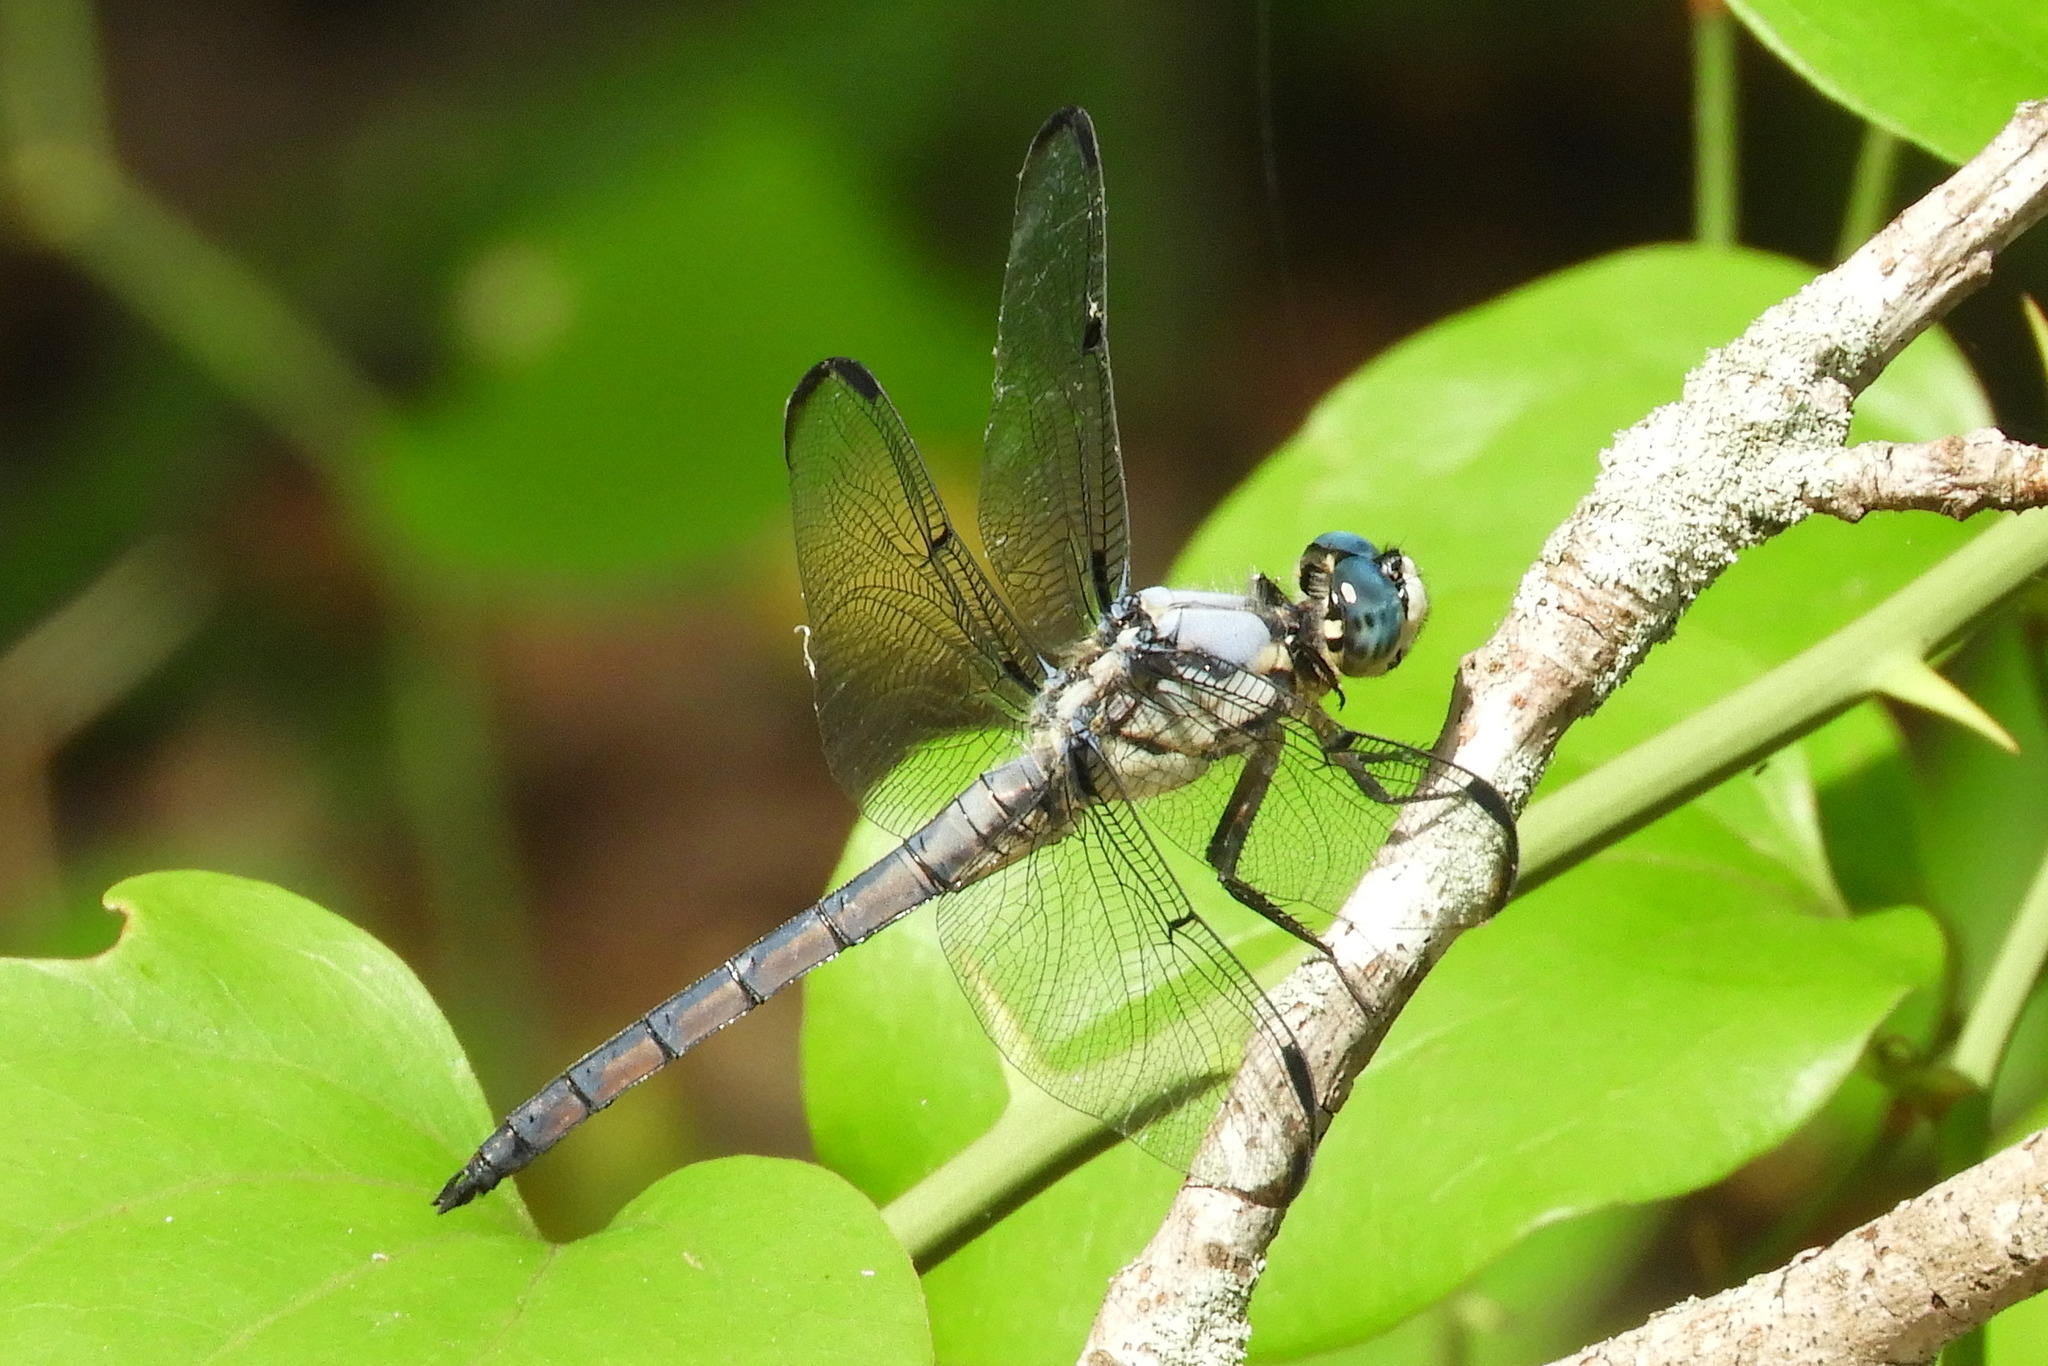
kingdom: Animalia
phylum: Arthropoda
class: Insecta
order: Odonata
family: Libellulidae
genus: Libellula
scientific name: Libellula vibrans
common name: Great blue skimmer
